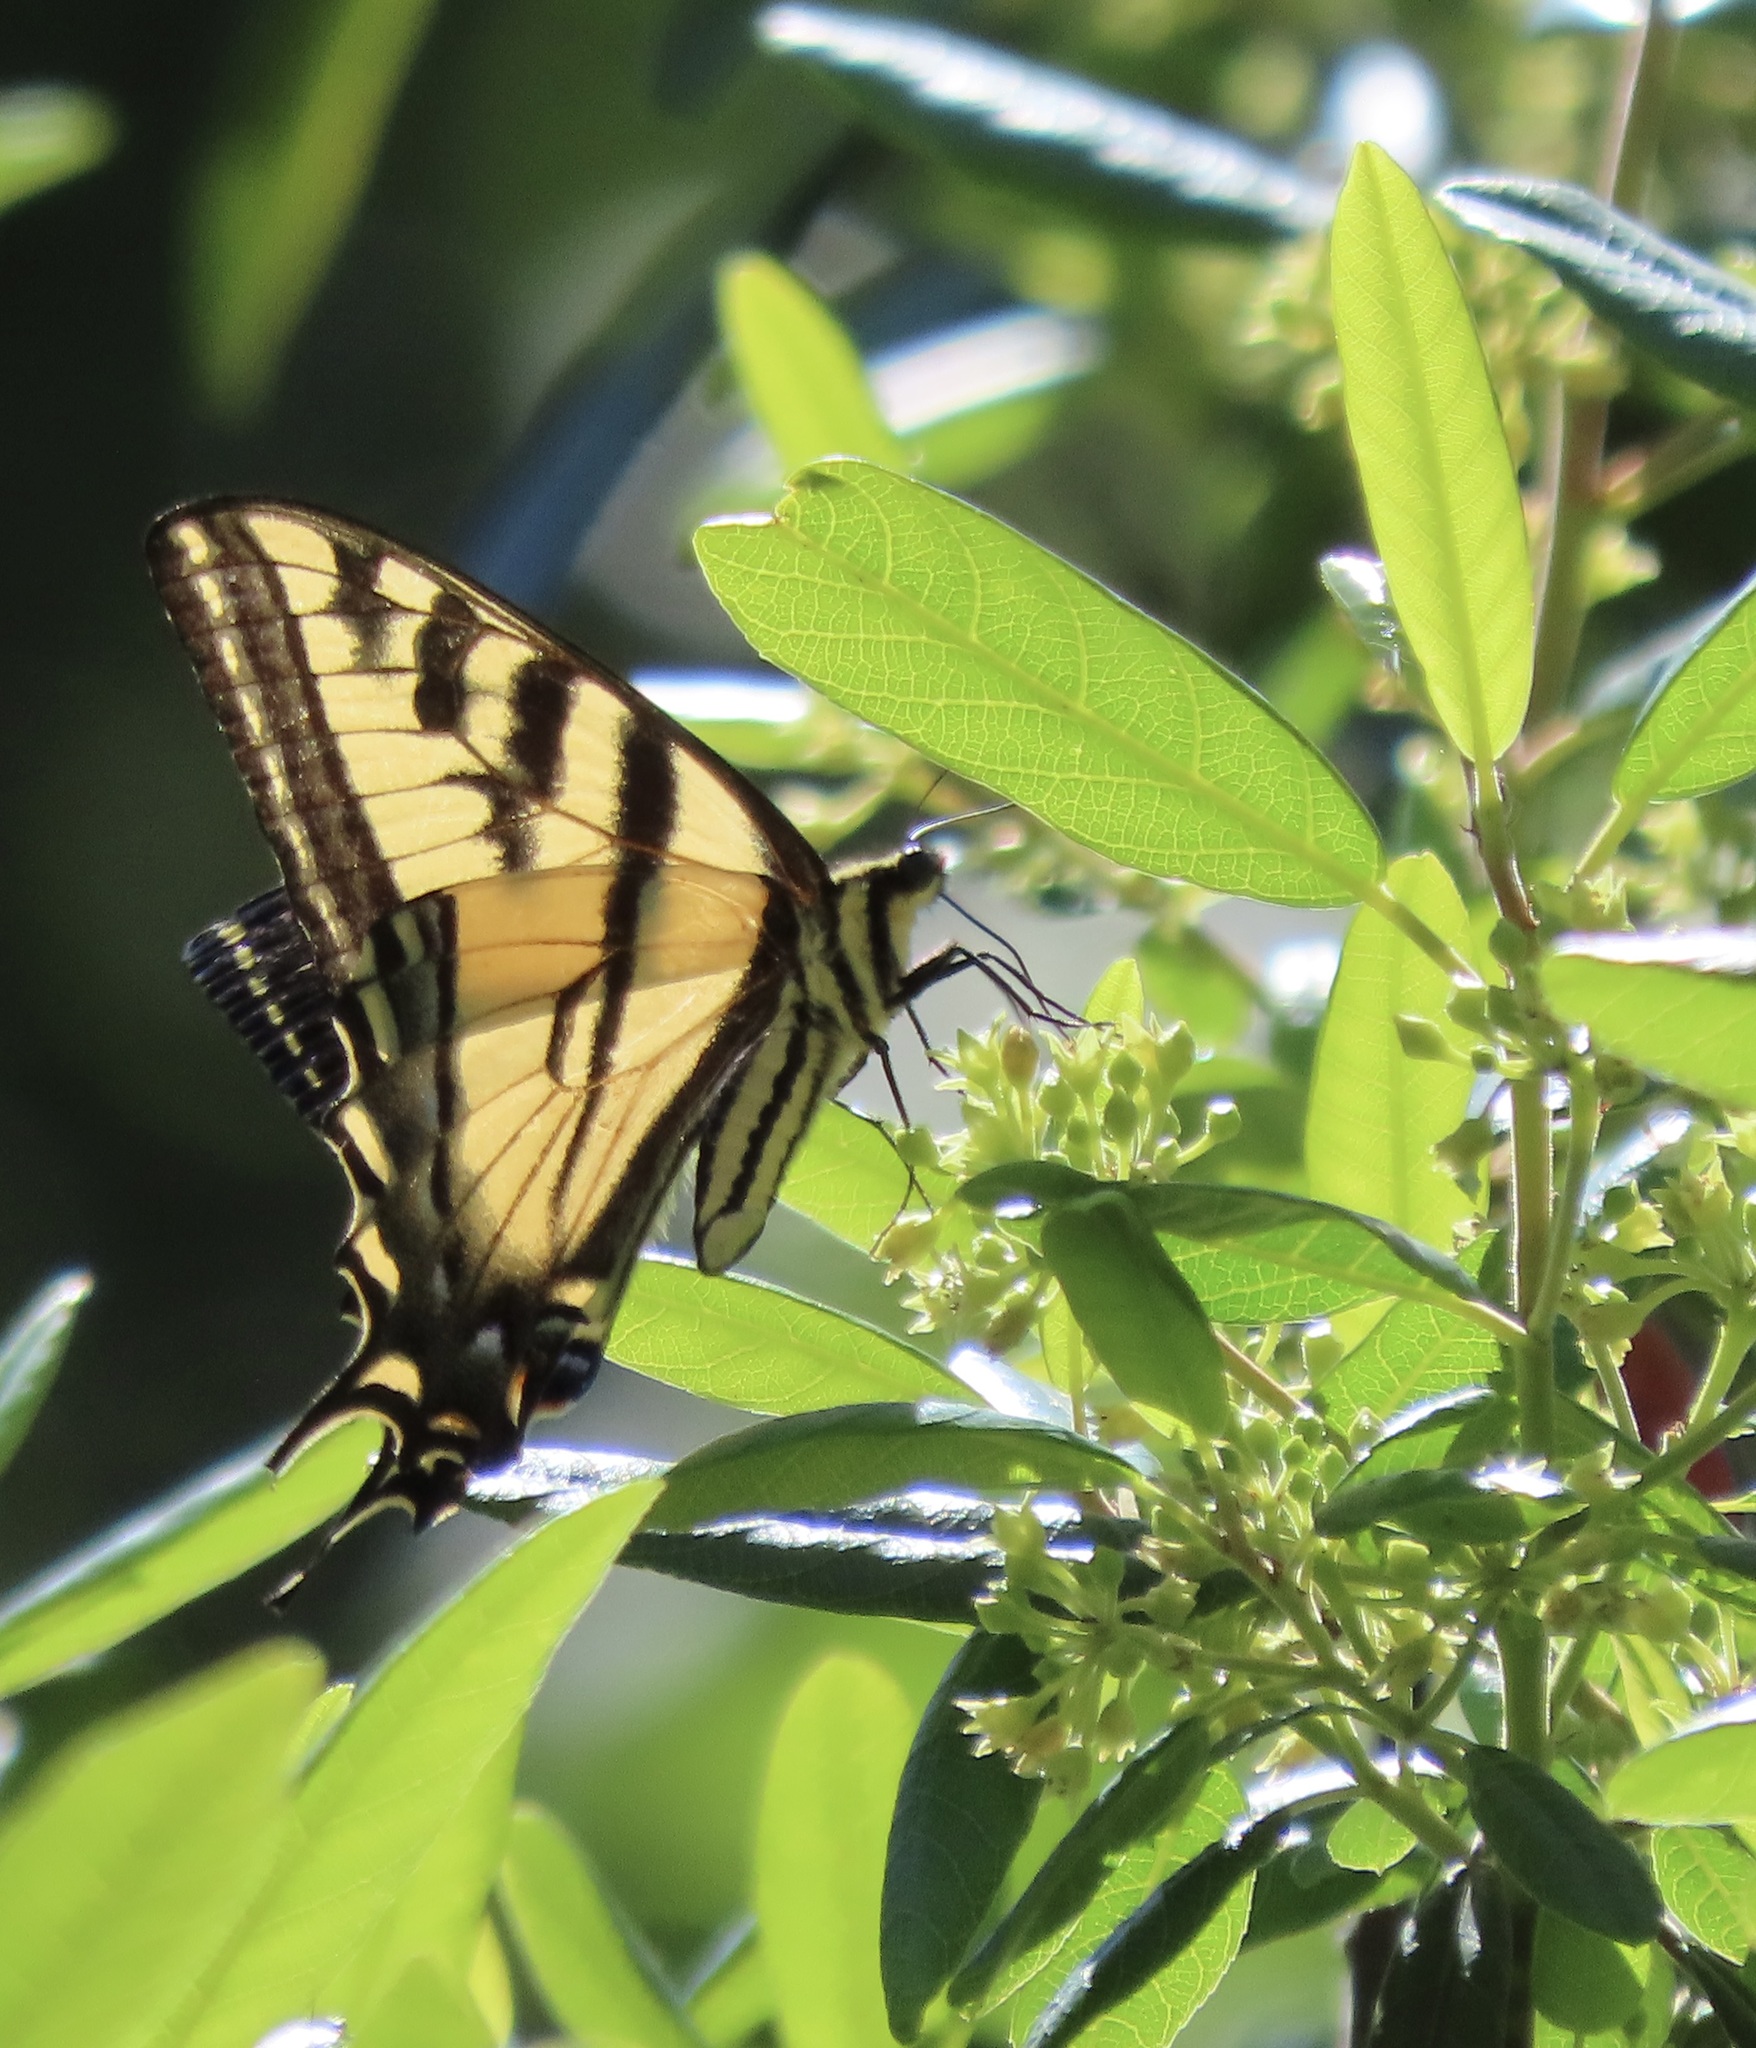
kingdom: Animalia
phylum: Arthropoda
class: Insecta
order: Lepidoptera
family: Papilionidae
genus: Papilio
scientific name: Papilio rutulus
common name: Western tiger swallowtail
